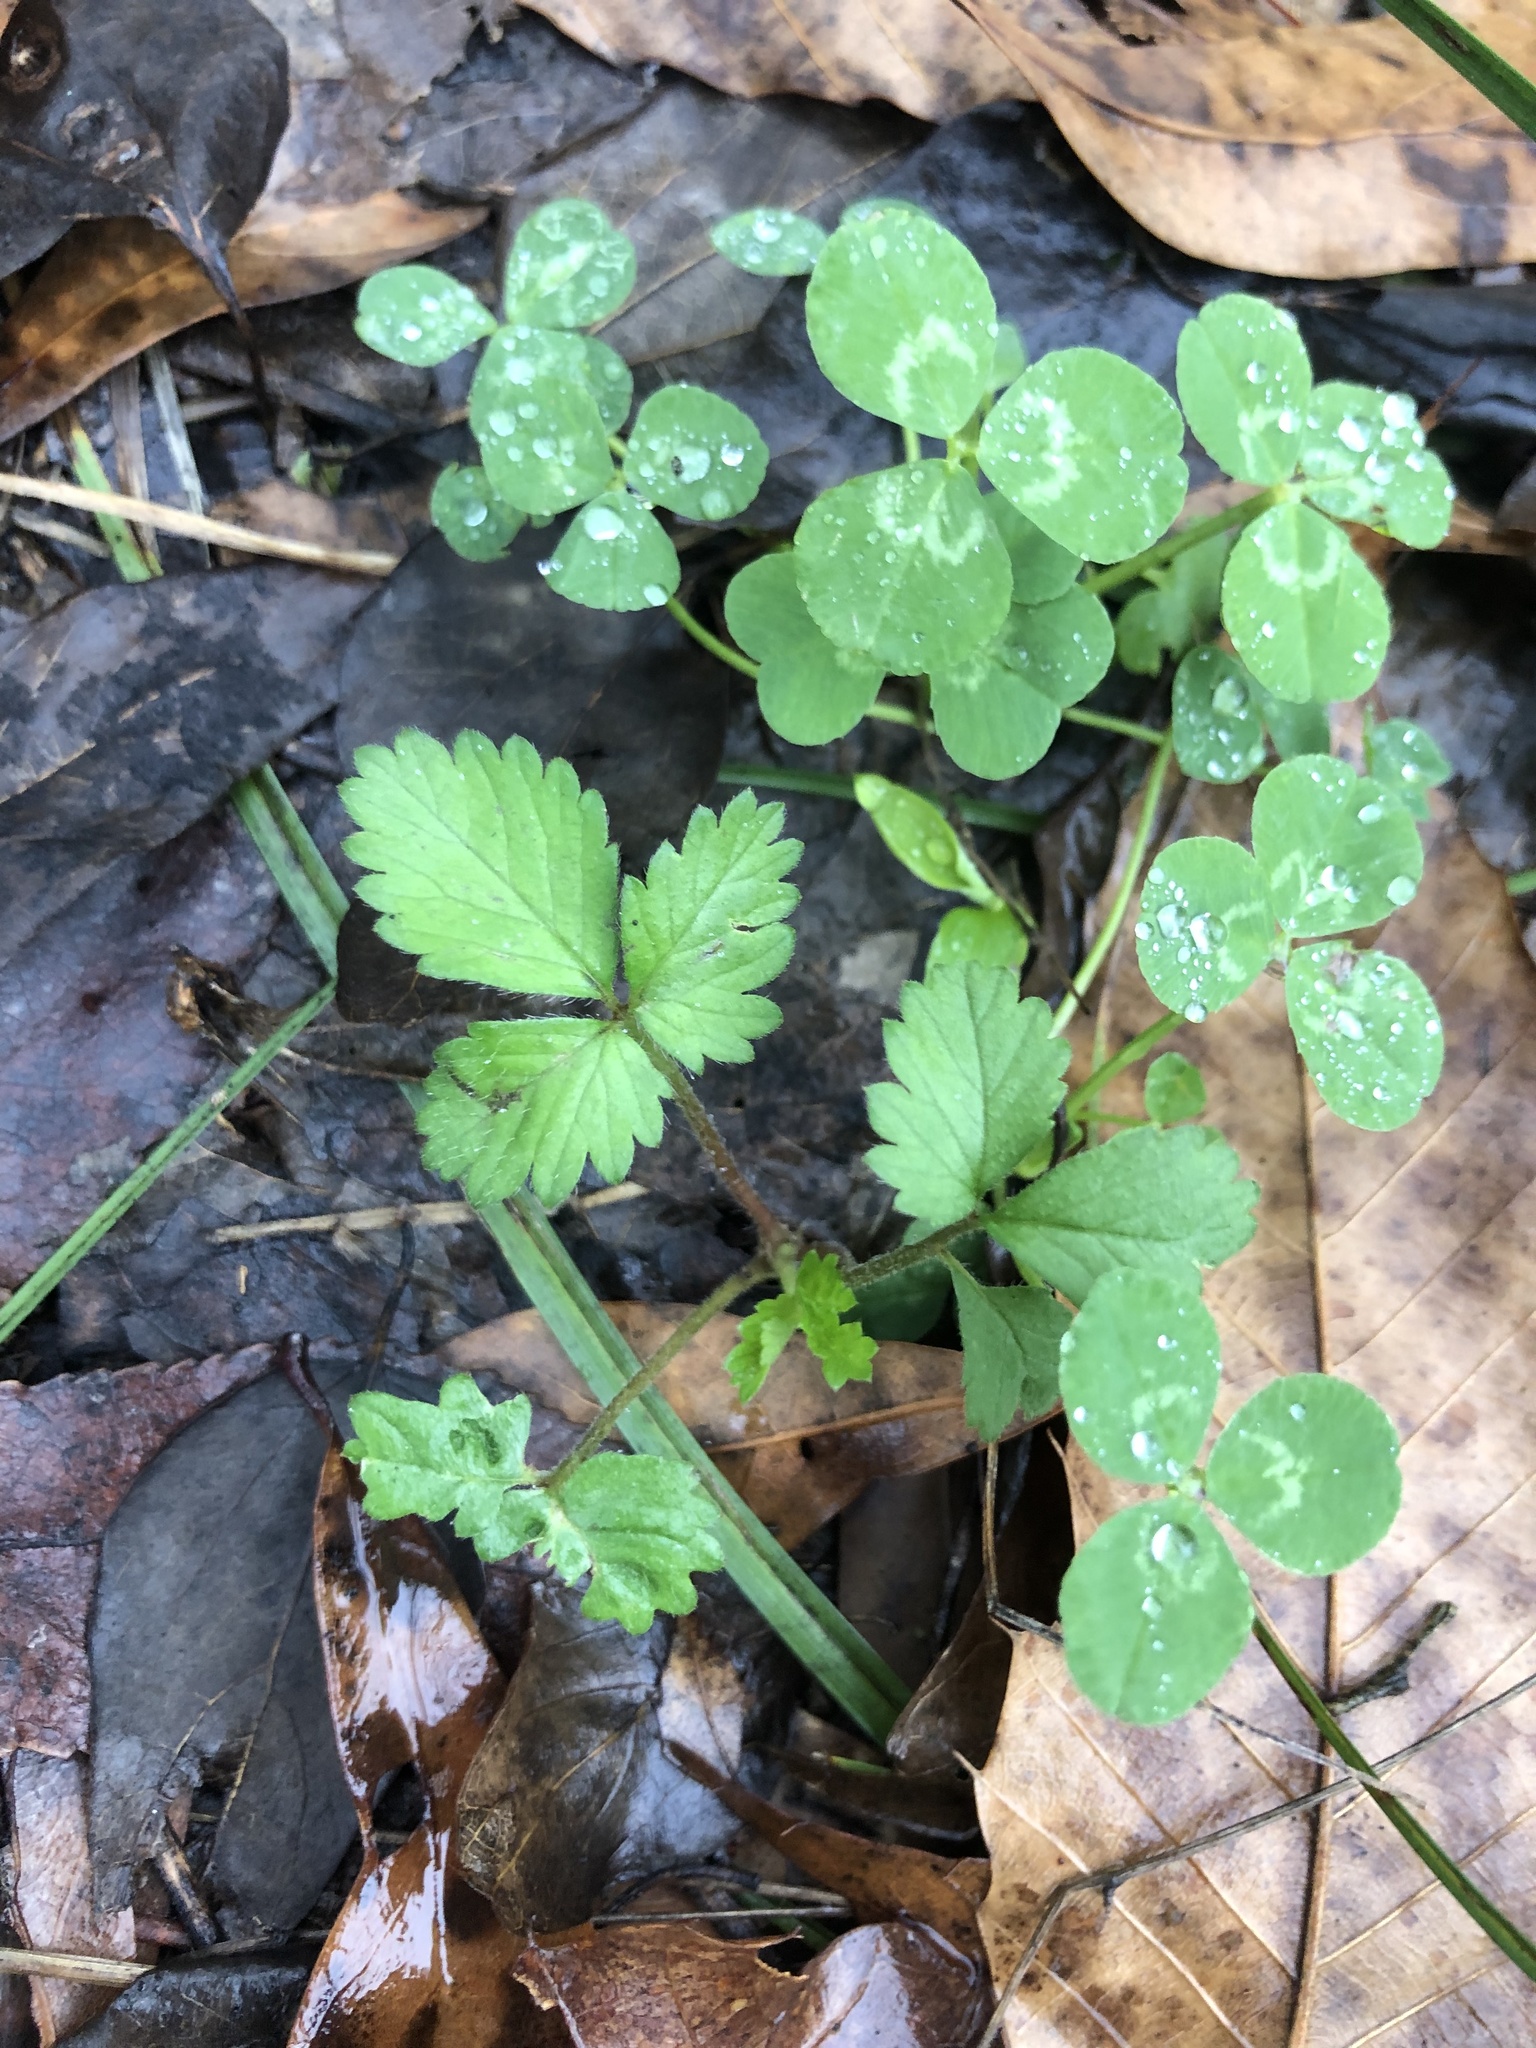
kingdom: Plantae
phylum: Tracheophyta
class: Magnoliopsida
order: Rosales
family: Rosaceae
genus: Potentilla
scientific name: Potentilla indica
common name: Yellow-flowered strawberry
